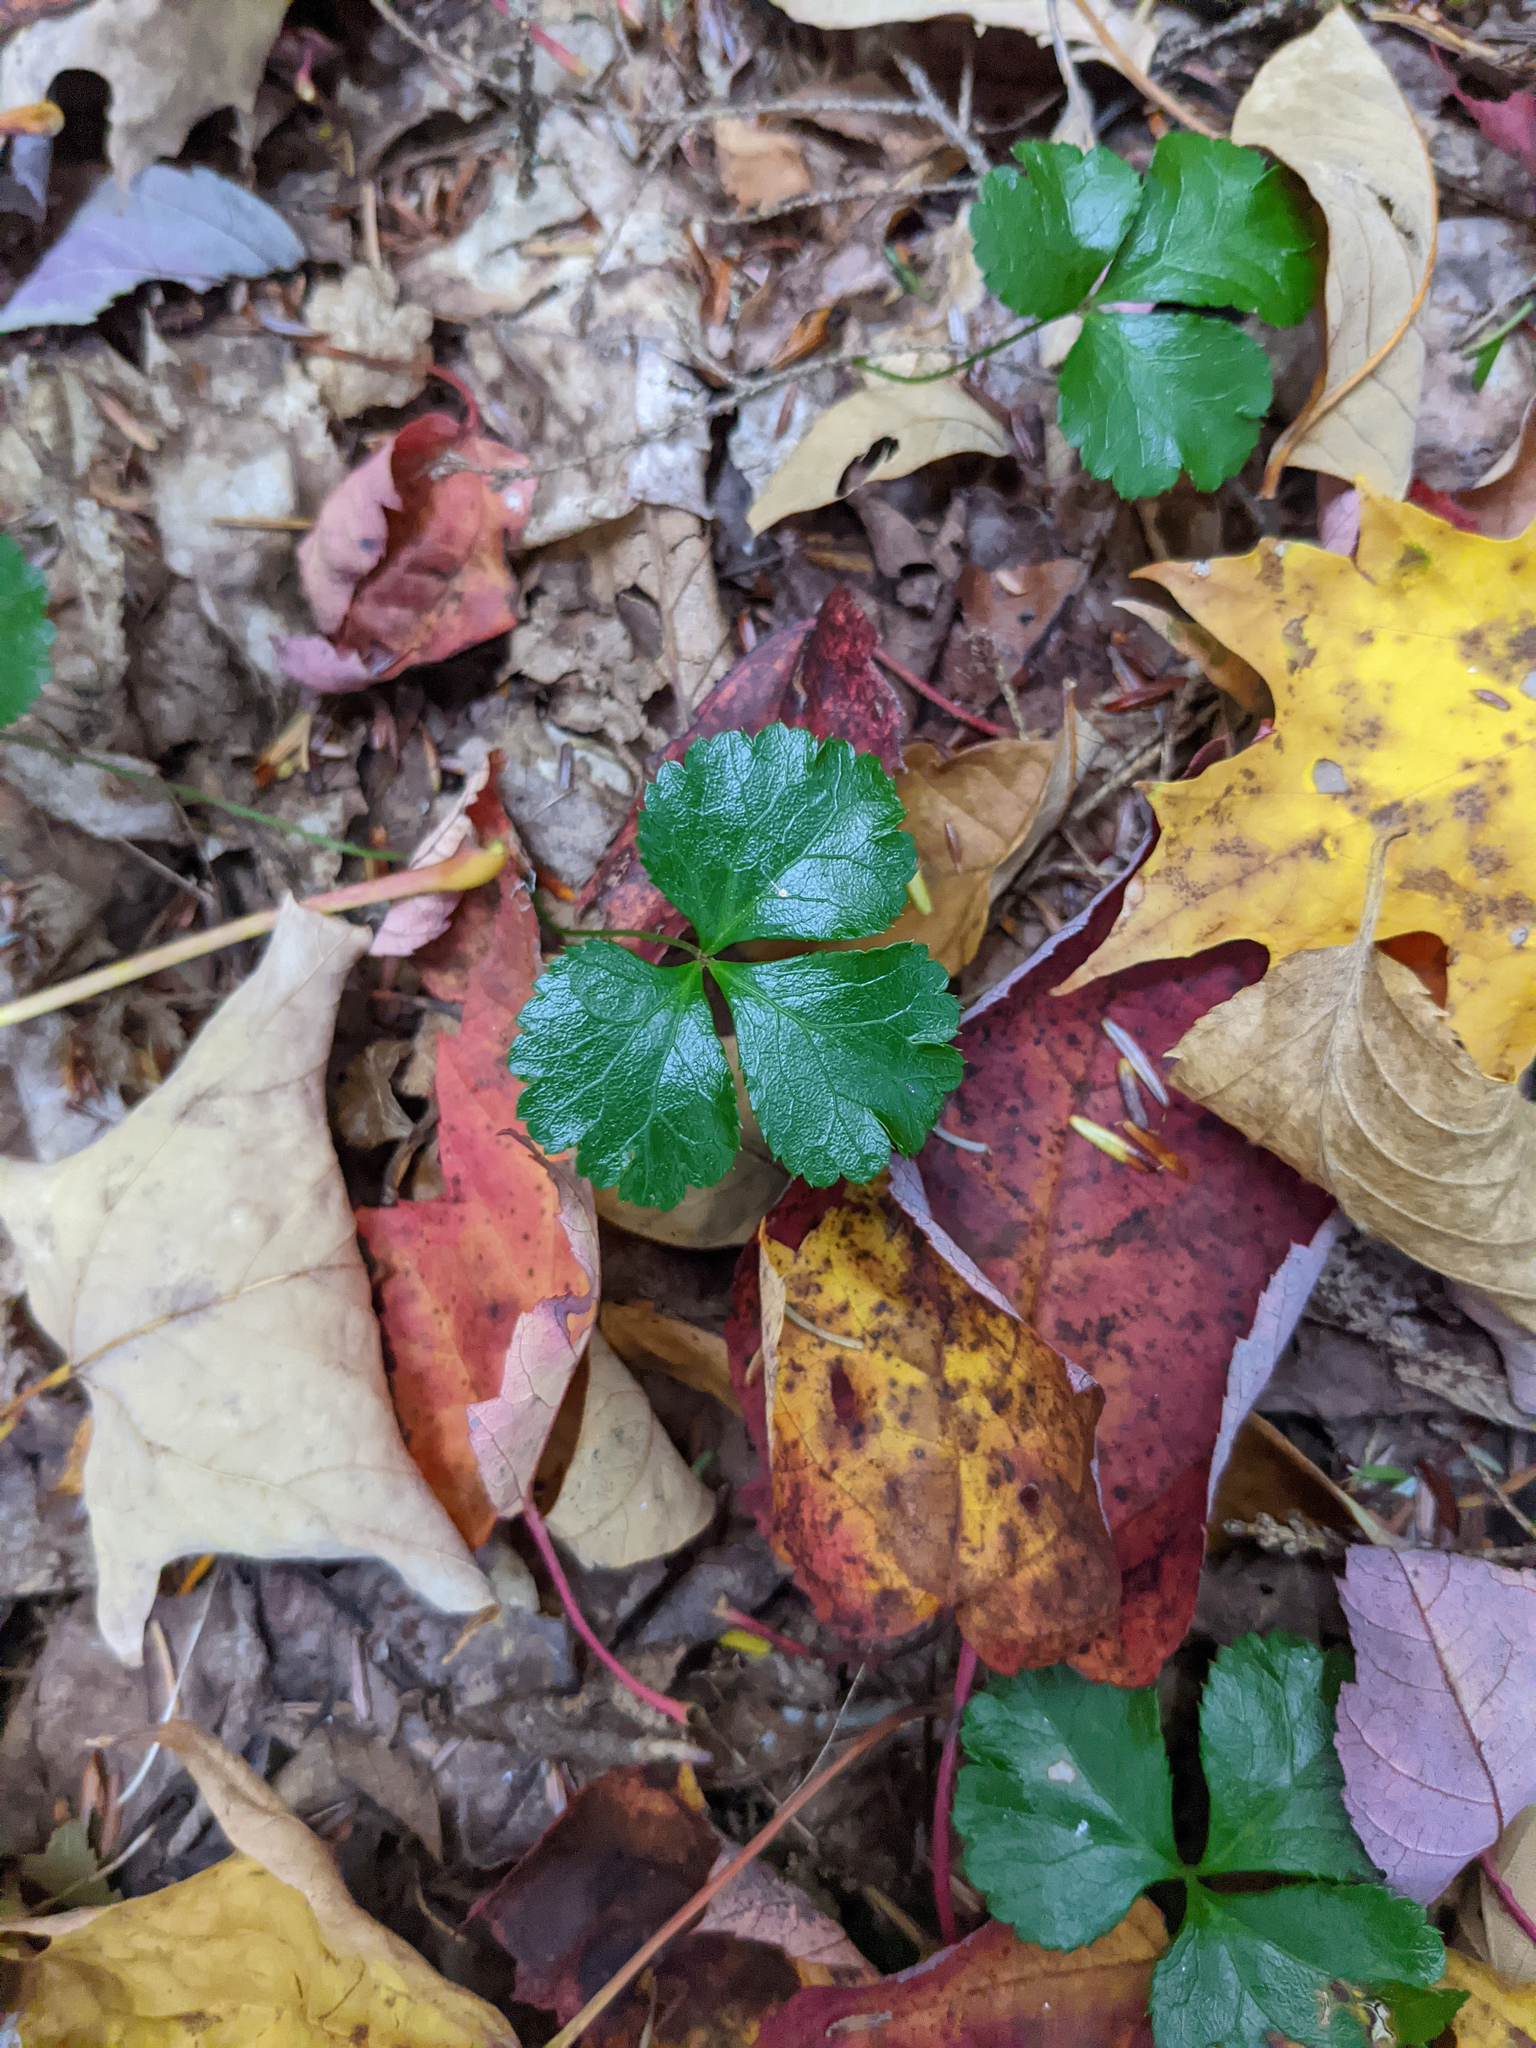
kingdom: Plantae
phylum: Tracheophyta
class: Magnoliopsida
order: Ranunculales
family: Ranunculaceae
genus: Coptis
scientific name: Coptis trifolia
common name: Canker-root
